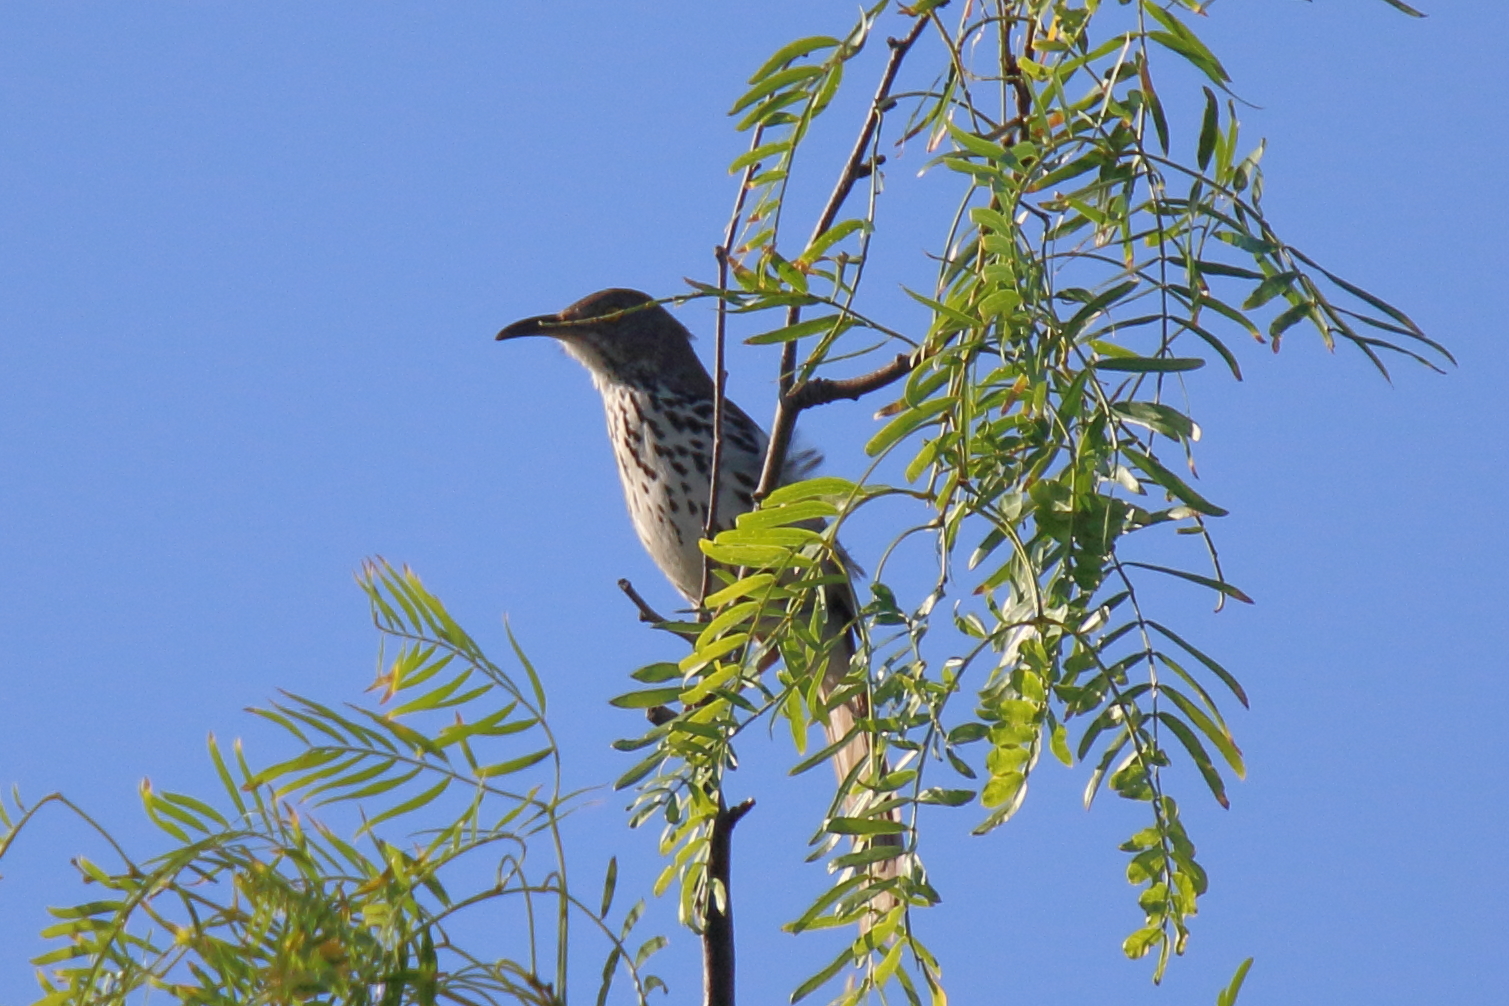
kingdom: Animalia
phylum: Chordata
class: Aves
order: Passeriformes
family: Mimidae
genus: Toxostoma
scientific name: Toxostoma longirostre
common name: Long-billed thrasher
